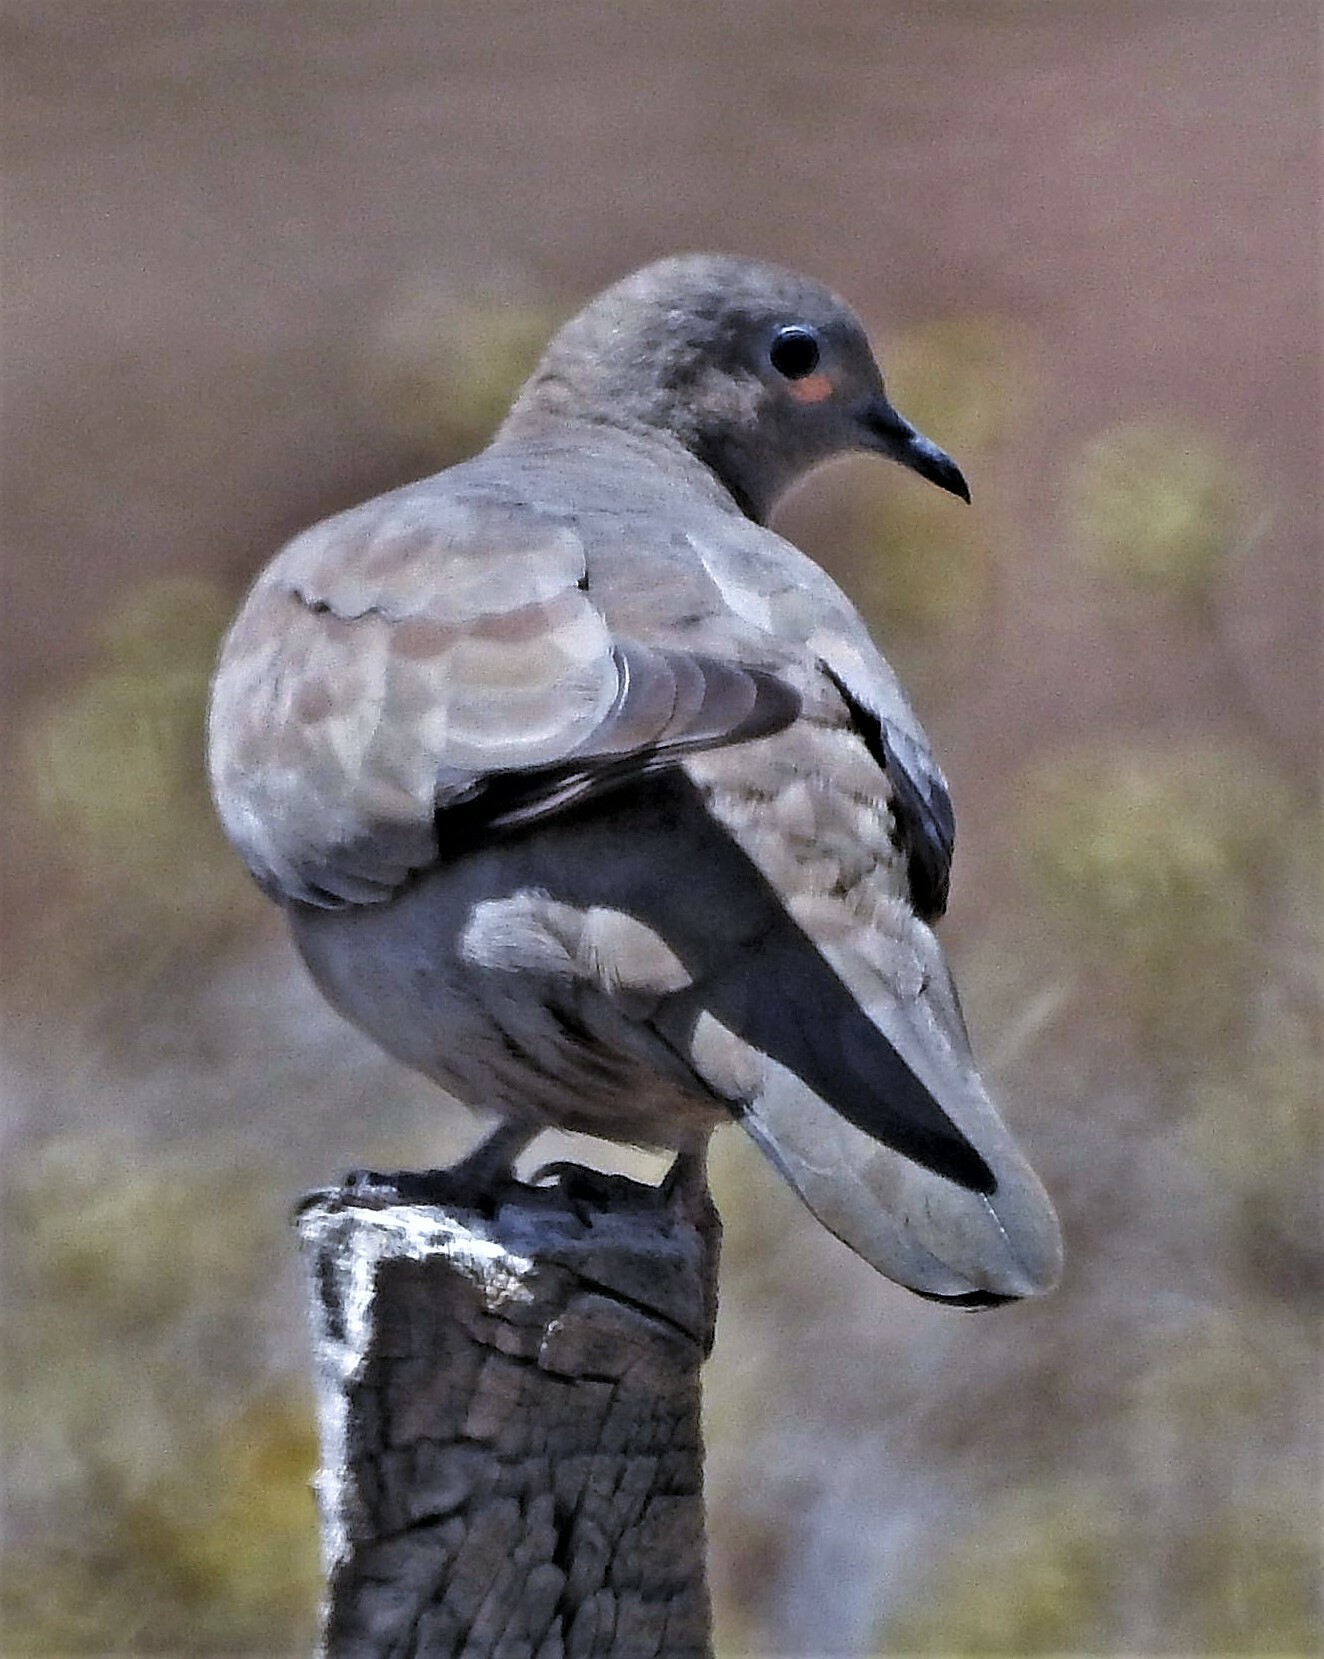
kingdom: Animalia
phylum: Chordata
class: Aves
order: Columbiformes
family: Columbidae
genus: Metriopelia
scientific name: Metriopelia melanoptera
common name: Black-winged ground dove
